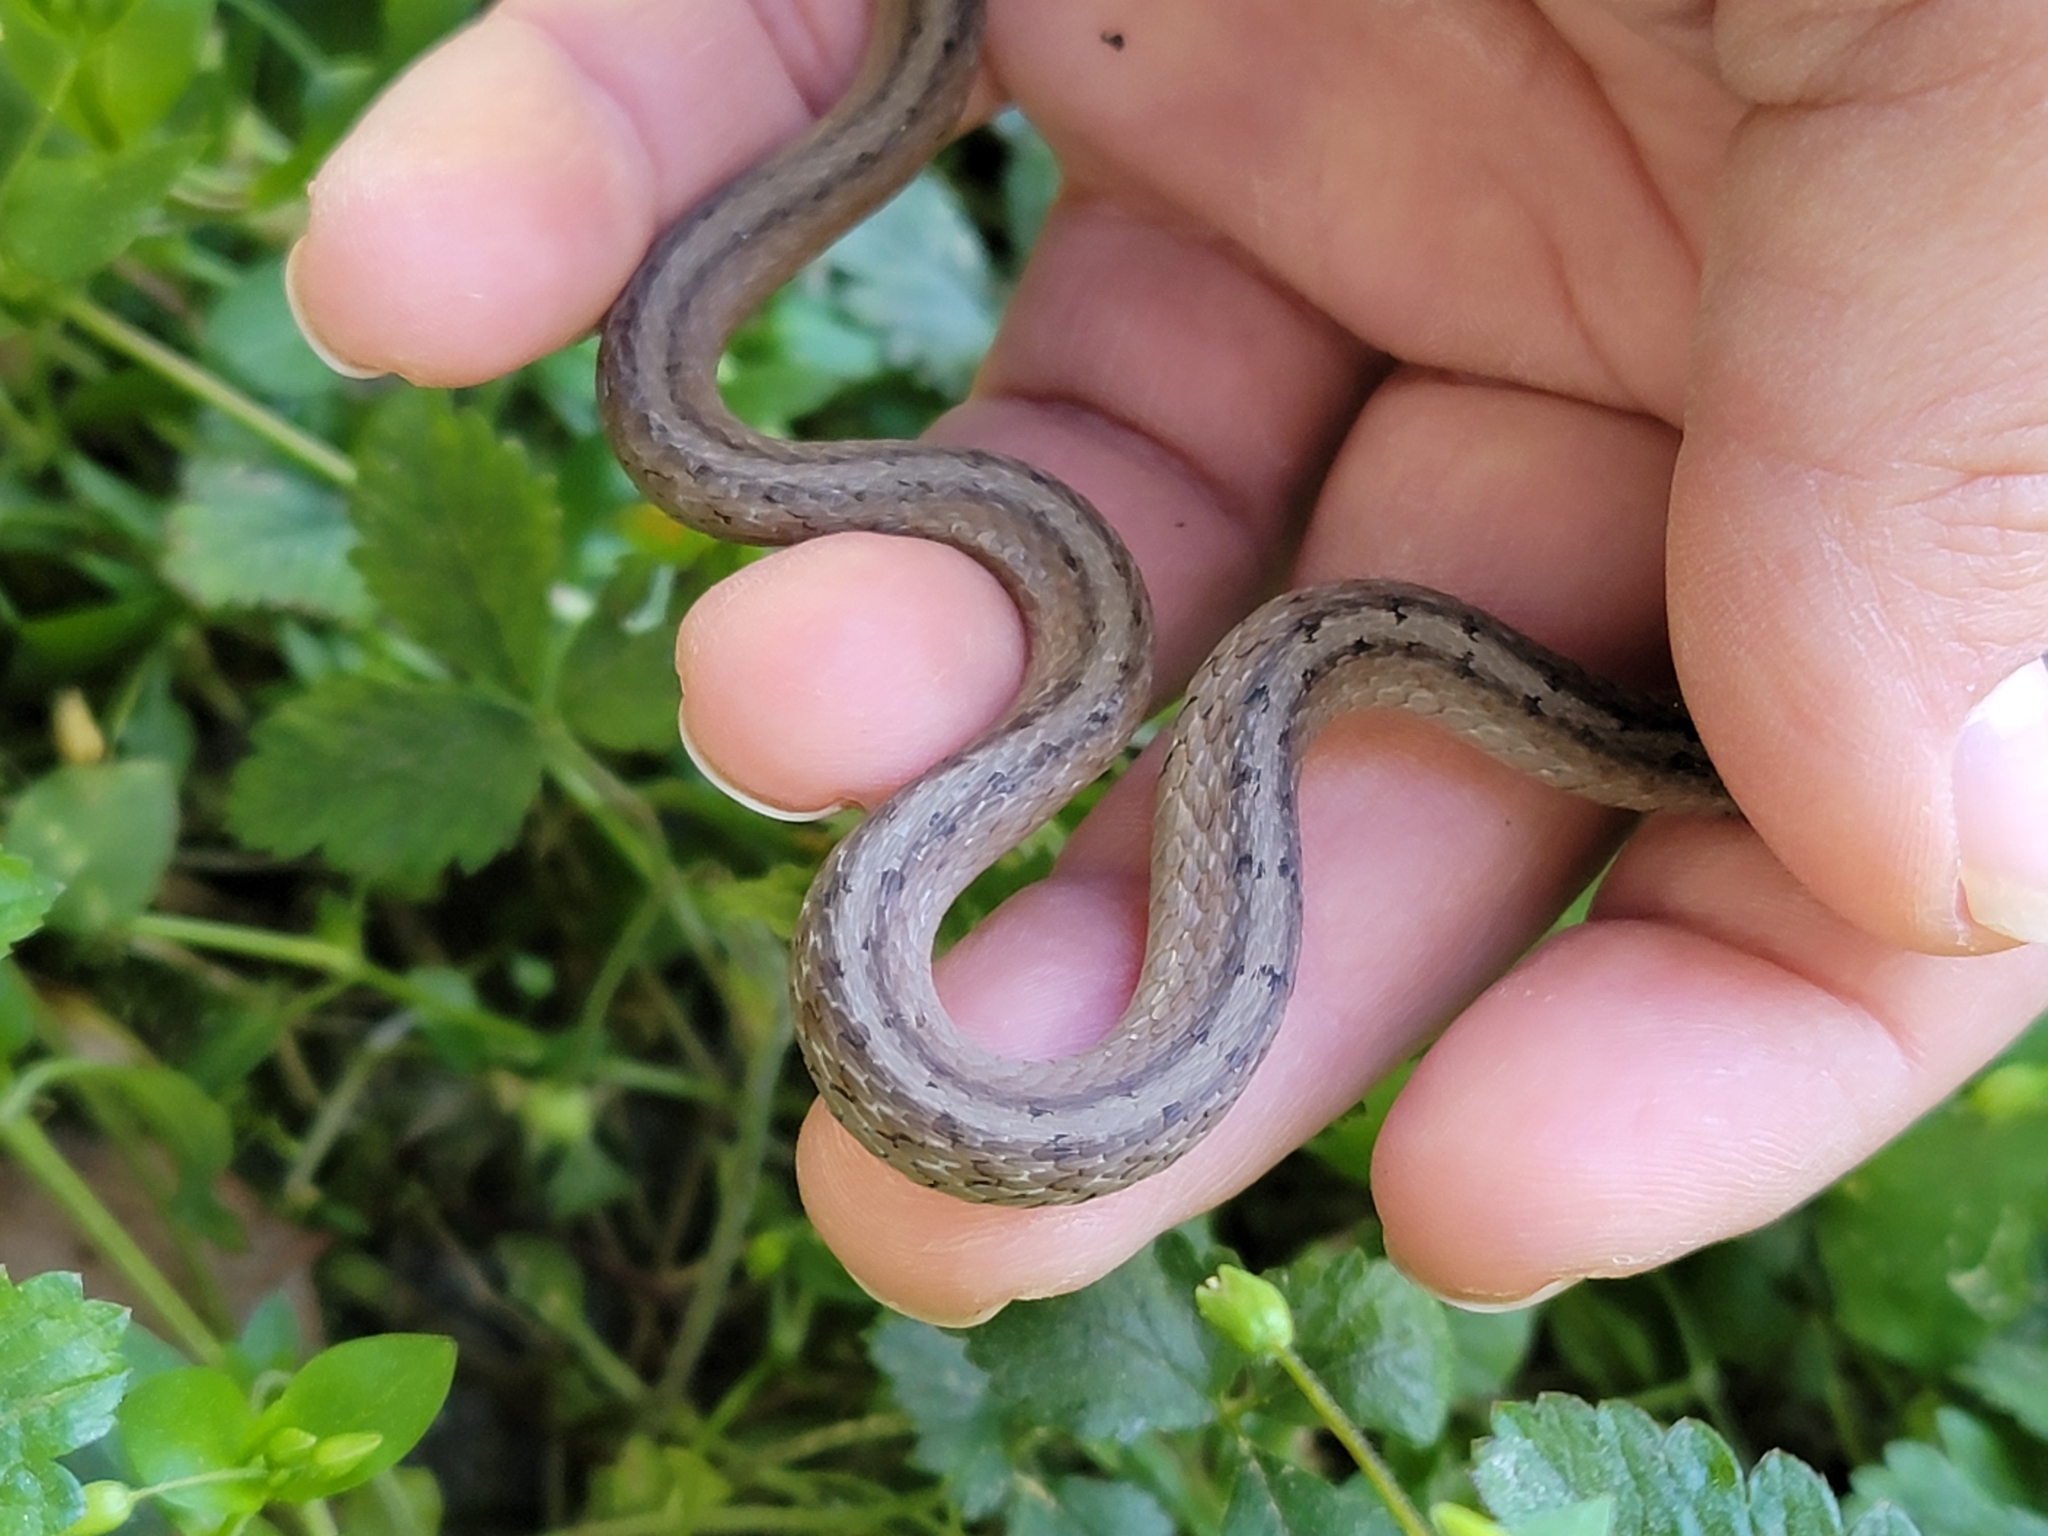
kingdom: Animalia
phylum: Chordata
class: Squamata
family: Colubridae
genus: Storeria
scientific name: Storeria dekayi
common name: (dekay’s) brown snake
